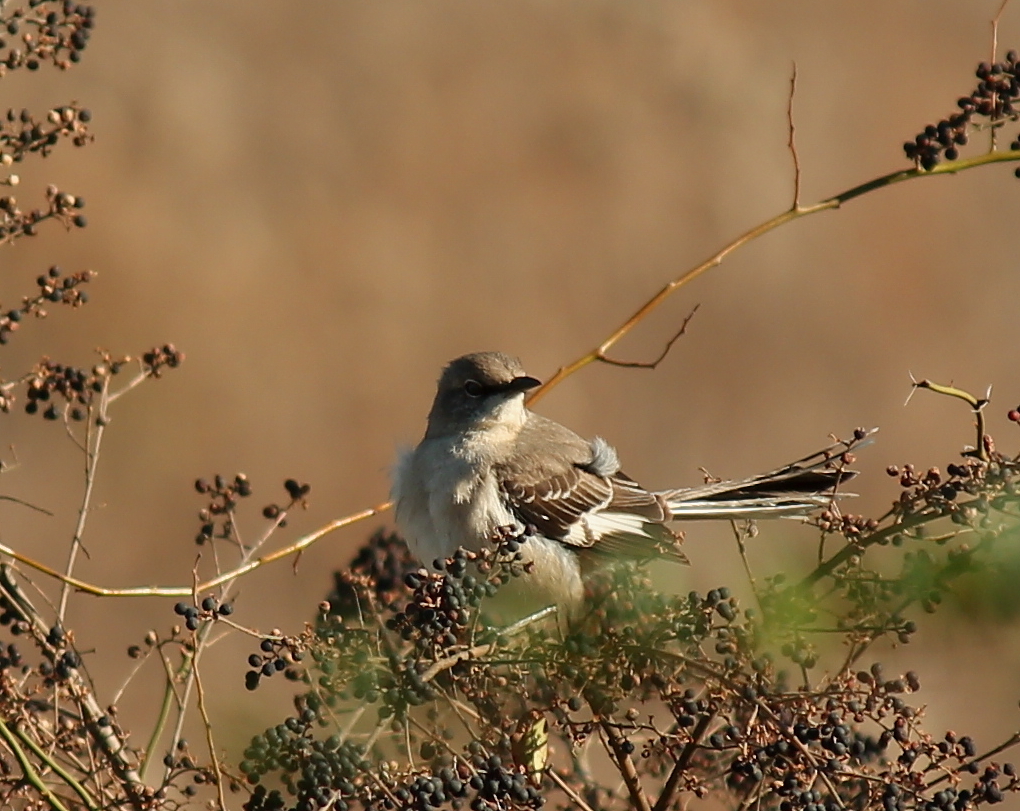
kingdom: Animalia
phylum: Chordata
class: Aves
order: Passeriformes
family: Mimidae
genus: Mimus
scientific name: Mimus polyglottos
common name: Northern mockingbird
